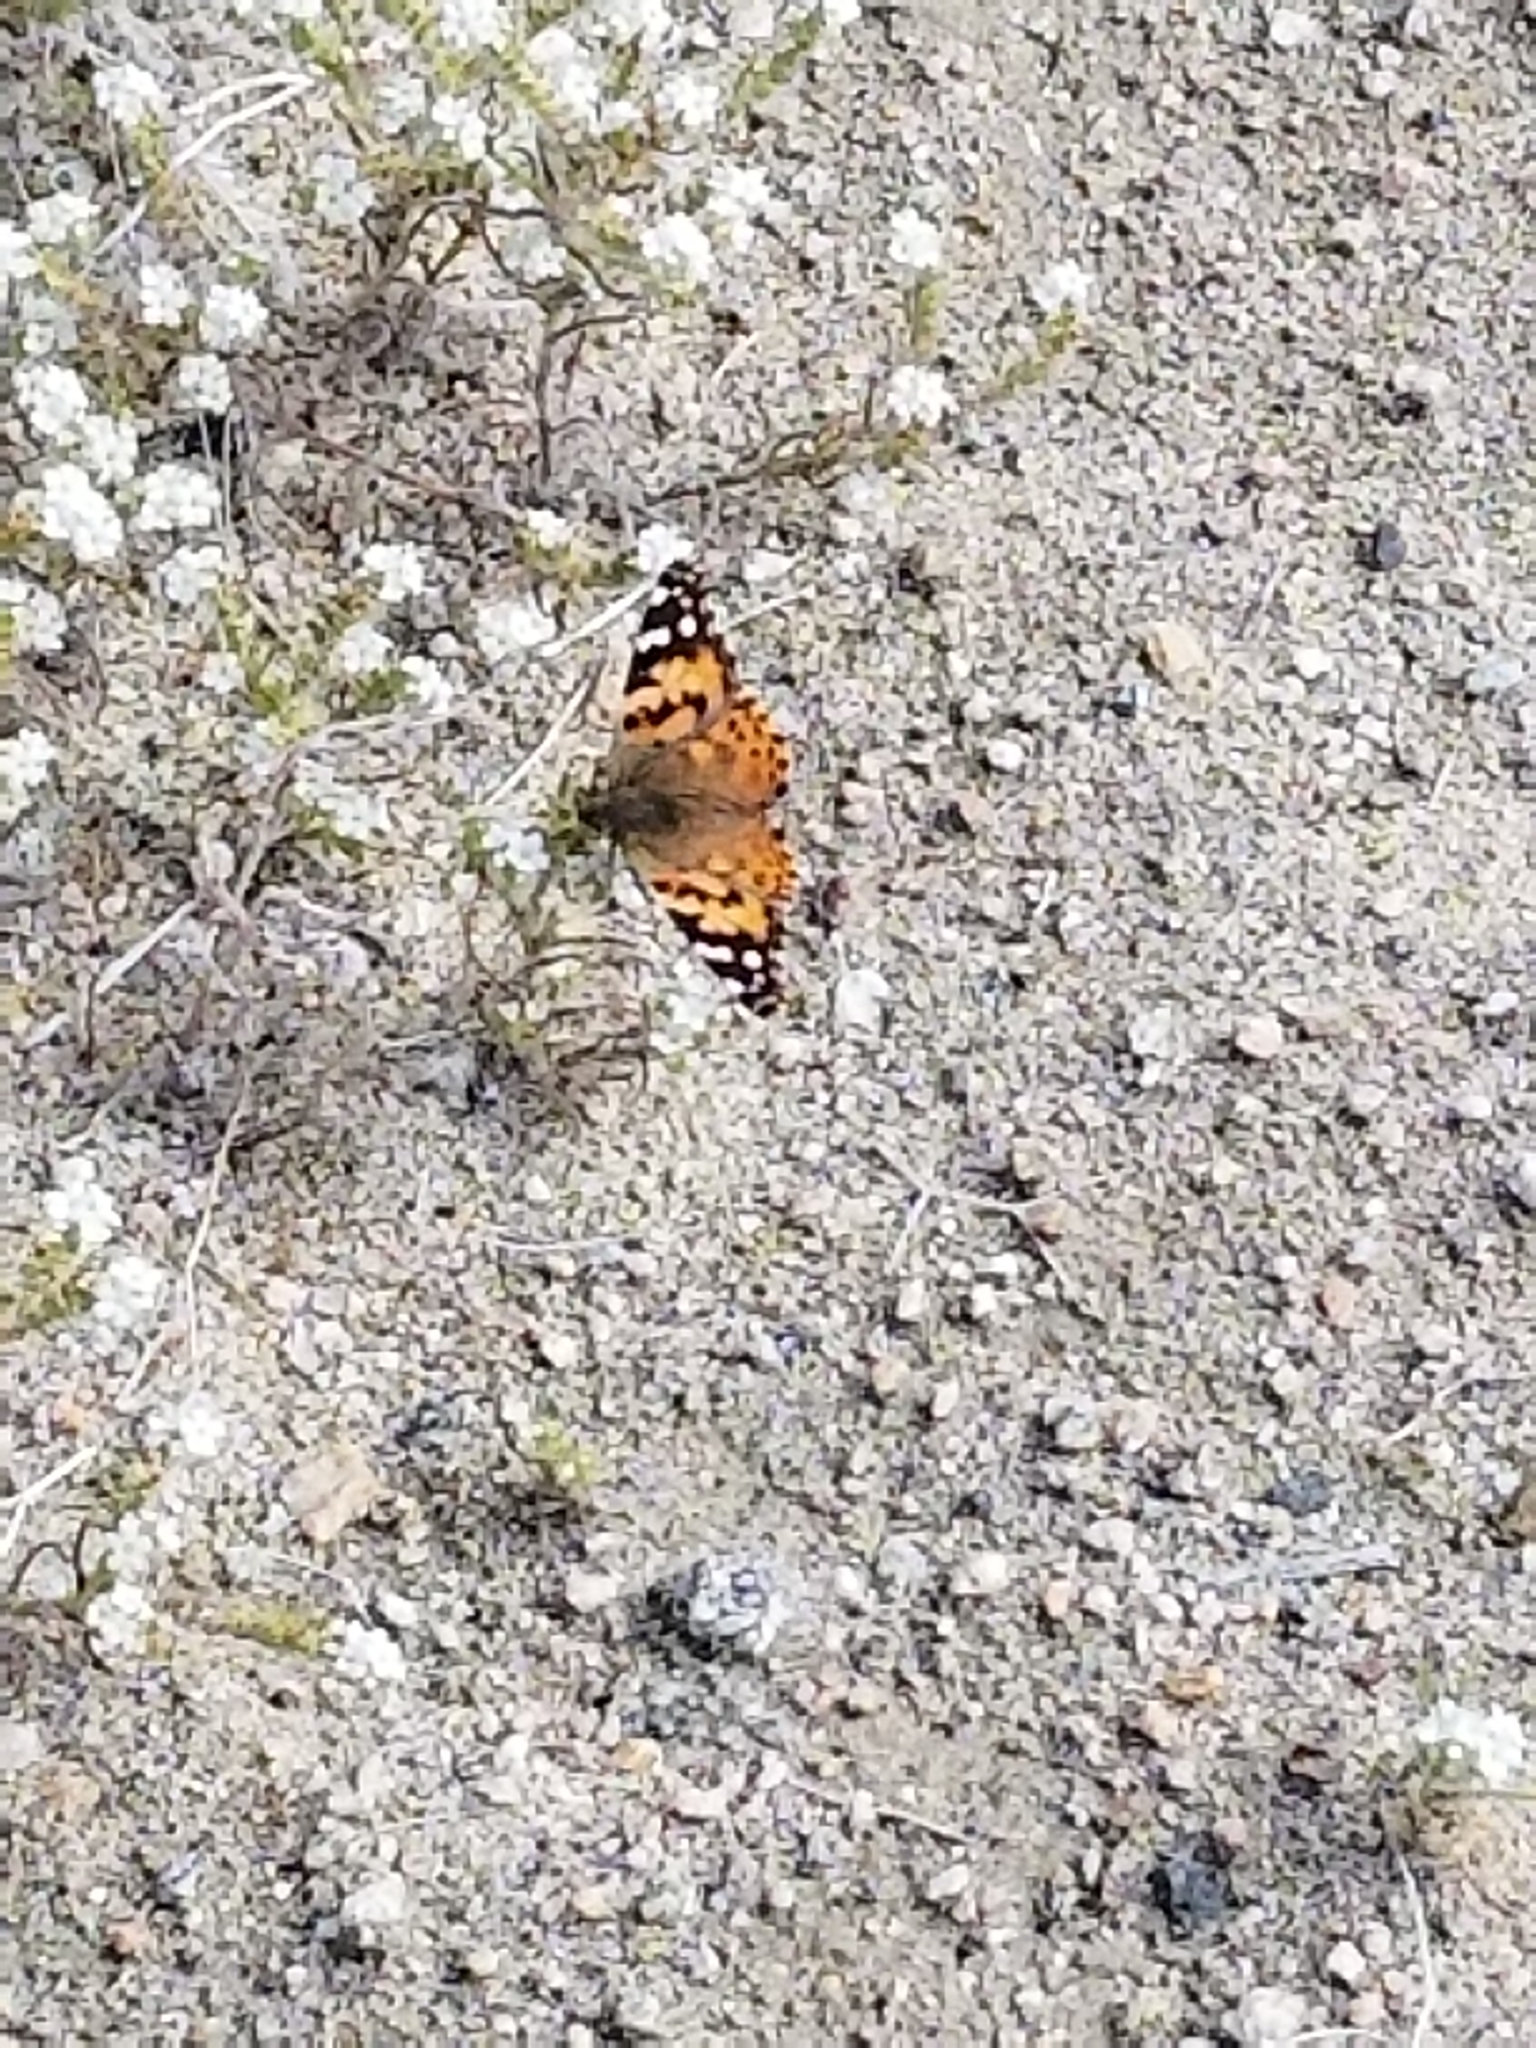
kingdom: Animalia
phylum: Arthropoda
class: Insecta
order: Lepidoptera
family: Nymphalidae
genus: Vanessa
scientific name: Vanessa cardui
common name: Painted lady
